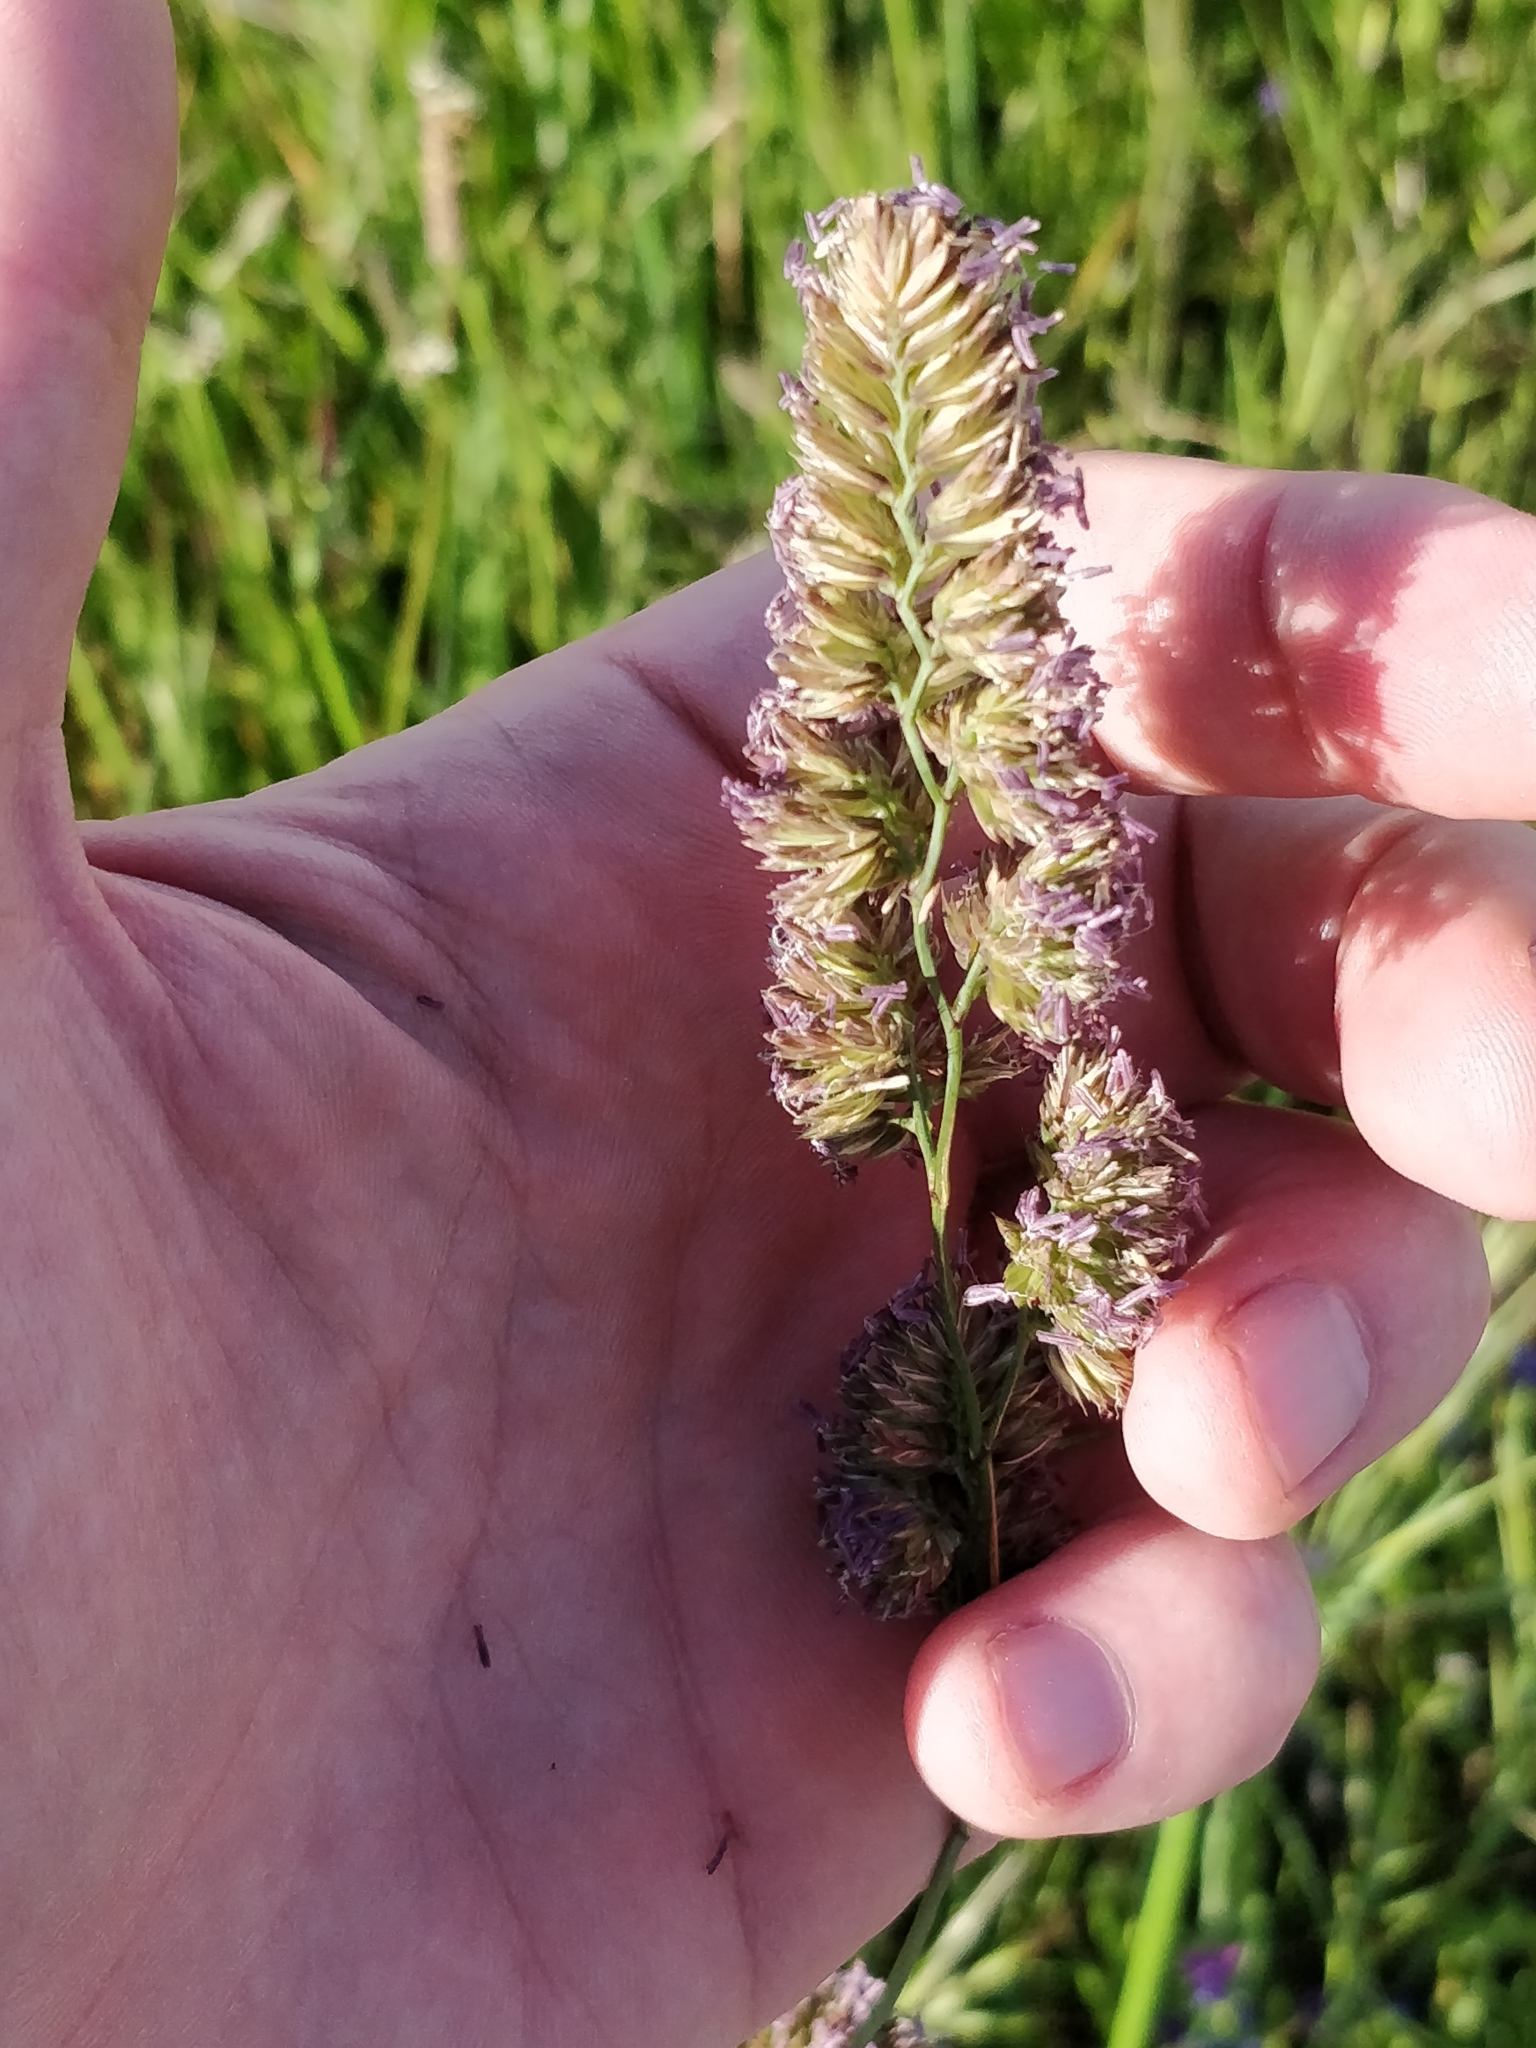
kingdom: Plantae
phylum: Tracheophyta
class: Liliopsida
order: Poales
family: Poaceae
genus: Dactylis
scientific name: Dactylis glomerata
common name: Orchardgrass
